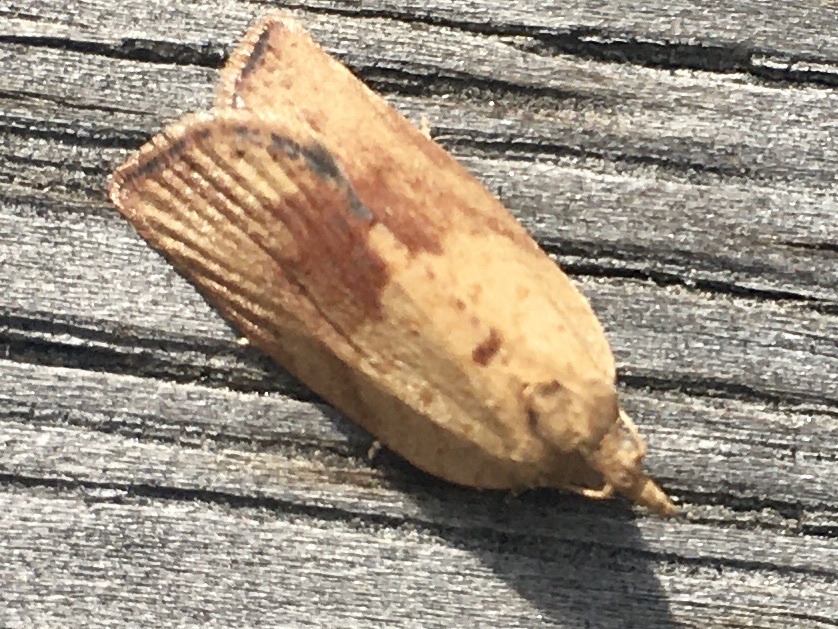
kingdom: Animalia
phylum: Arthropoda
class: Insecta
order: Lepidoptera
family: Tortricidae
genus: Epiphyas
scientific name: Epiphyas postvittana
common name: Light brown apple moth
